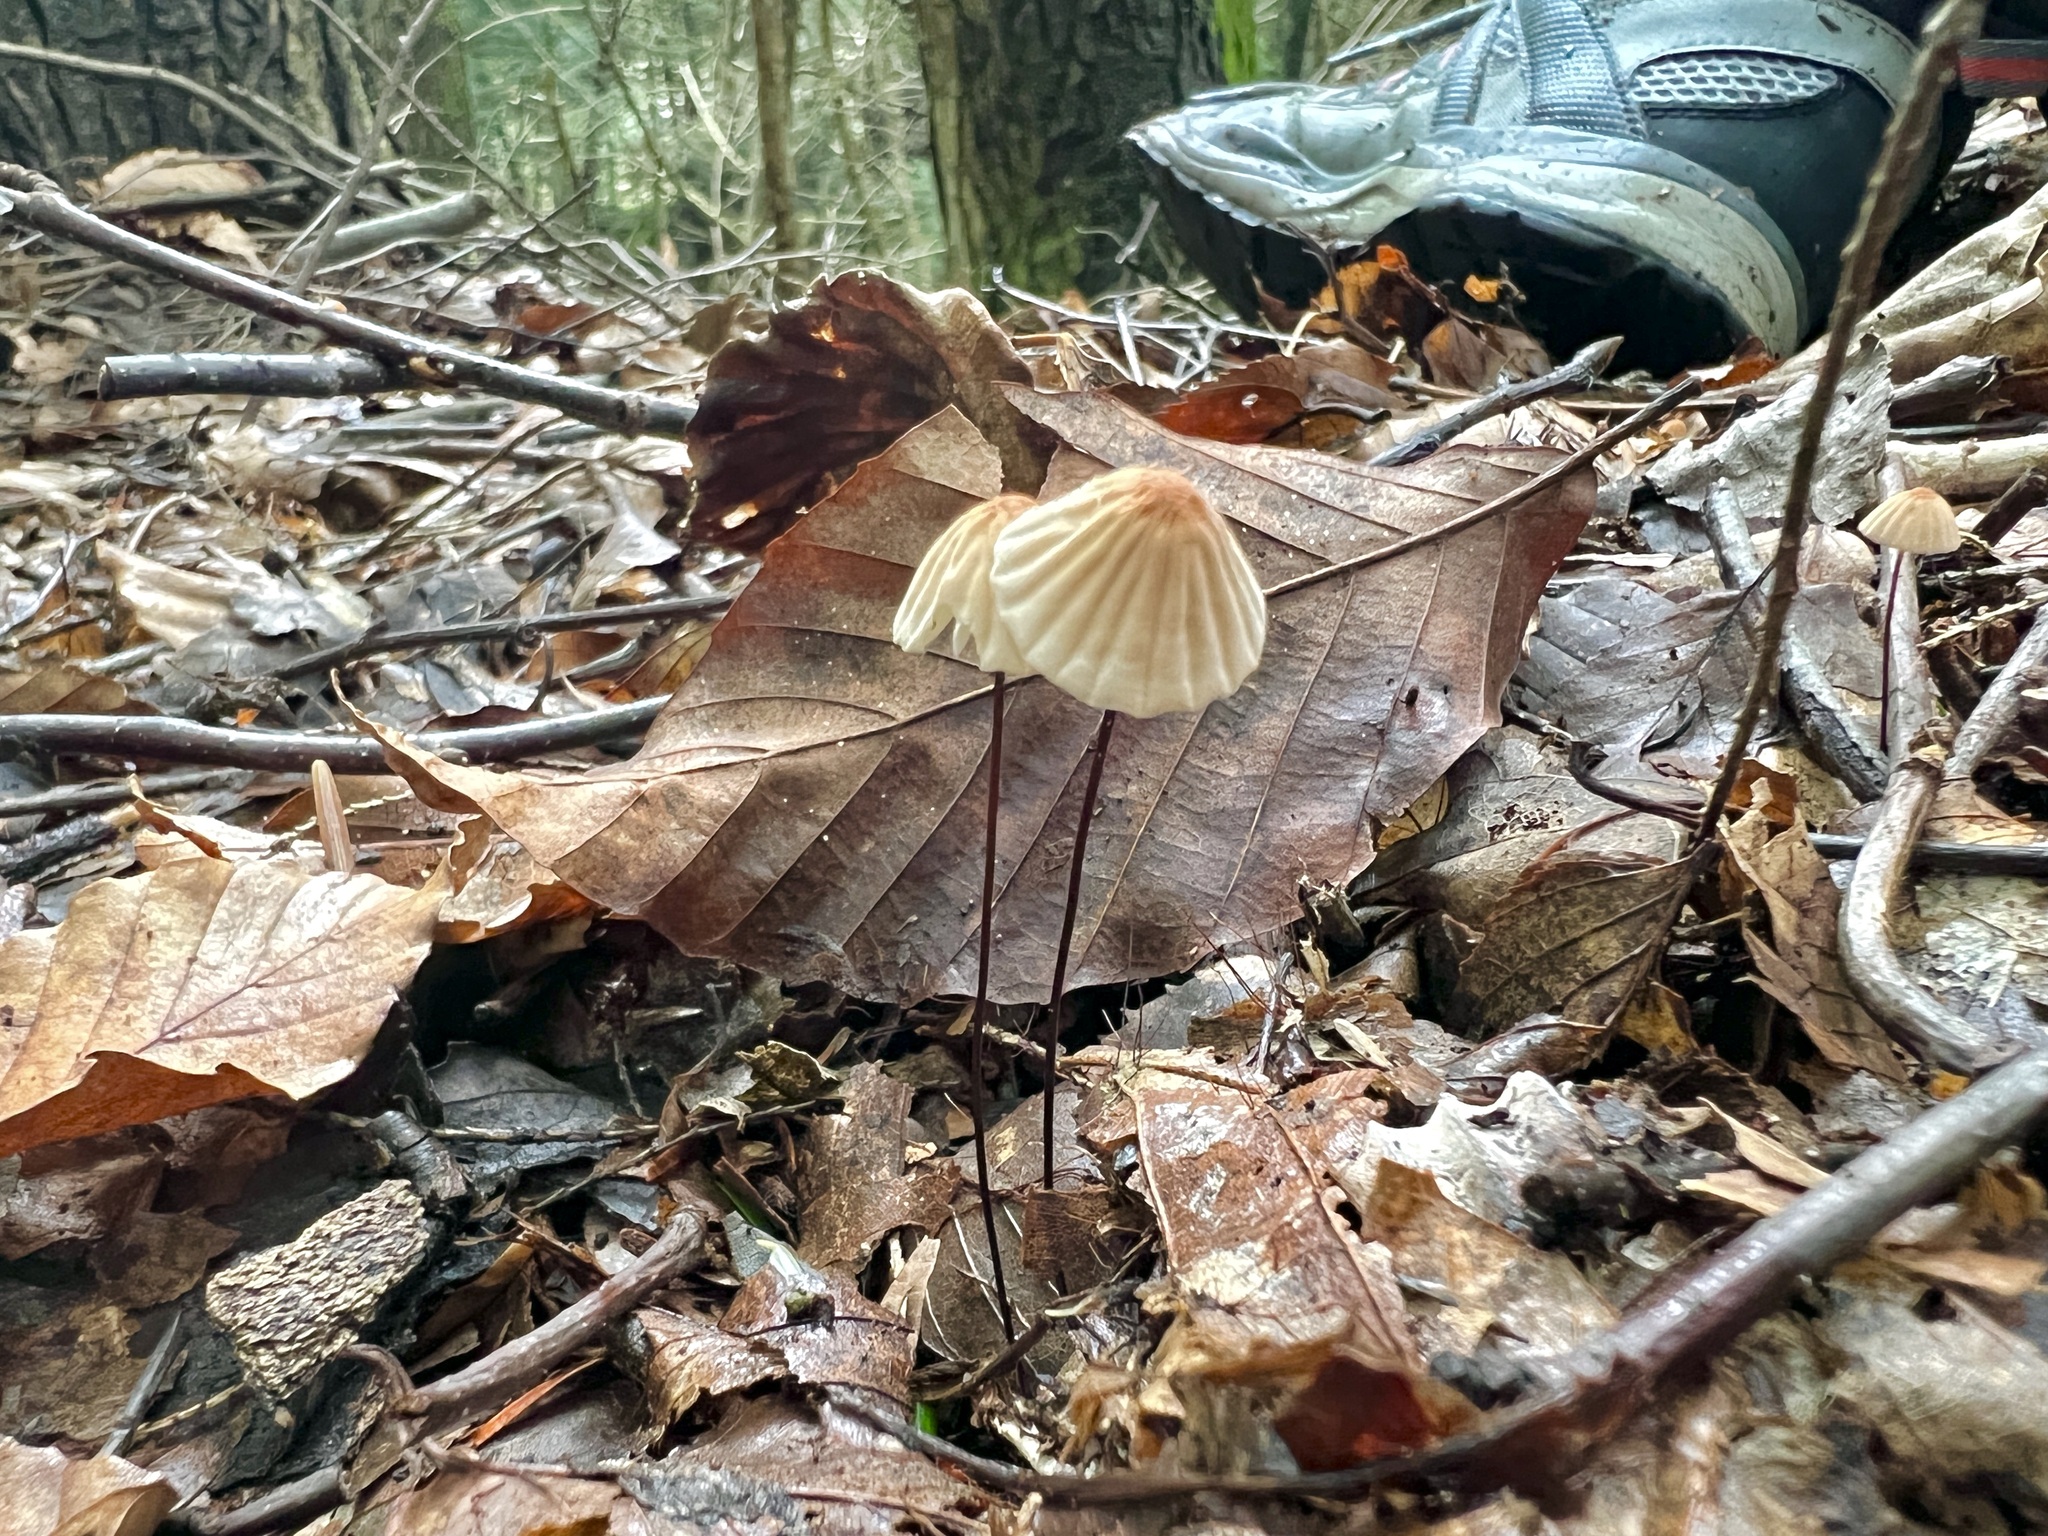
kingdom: Fungi
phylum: Basidiomycota
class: Agaricomycetes
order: Agaricales
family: Marasmiaceae
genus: Marasmius
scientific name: Marasmius siccus
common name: Orange pinwheel
